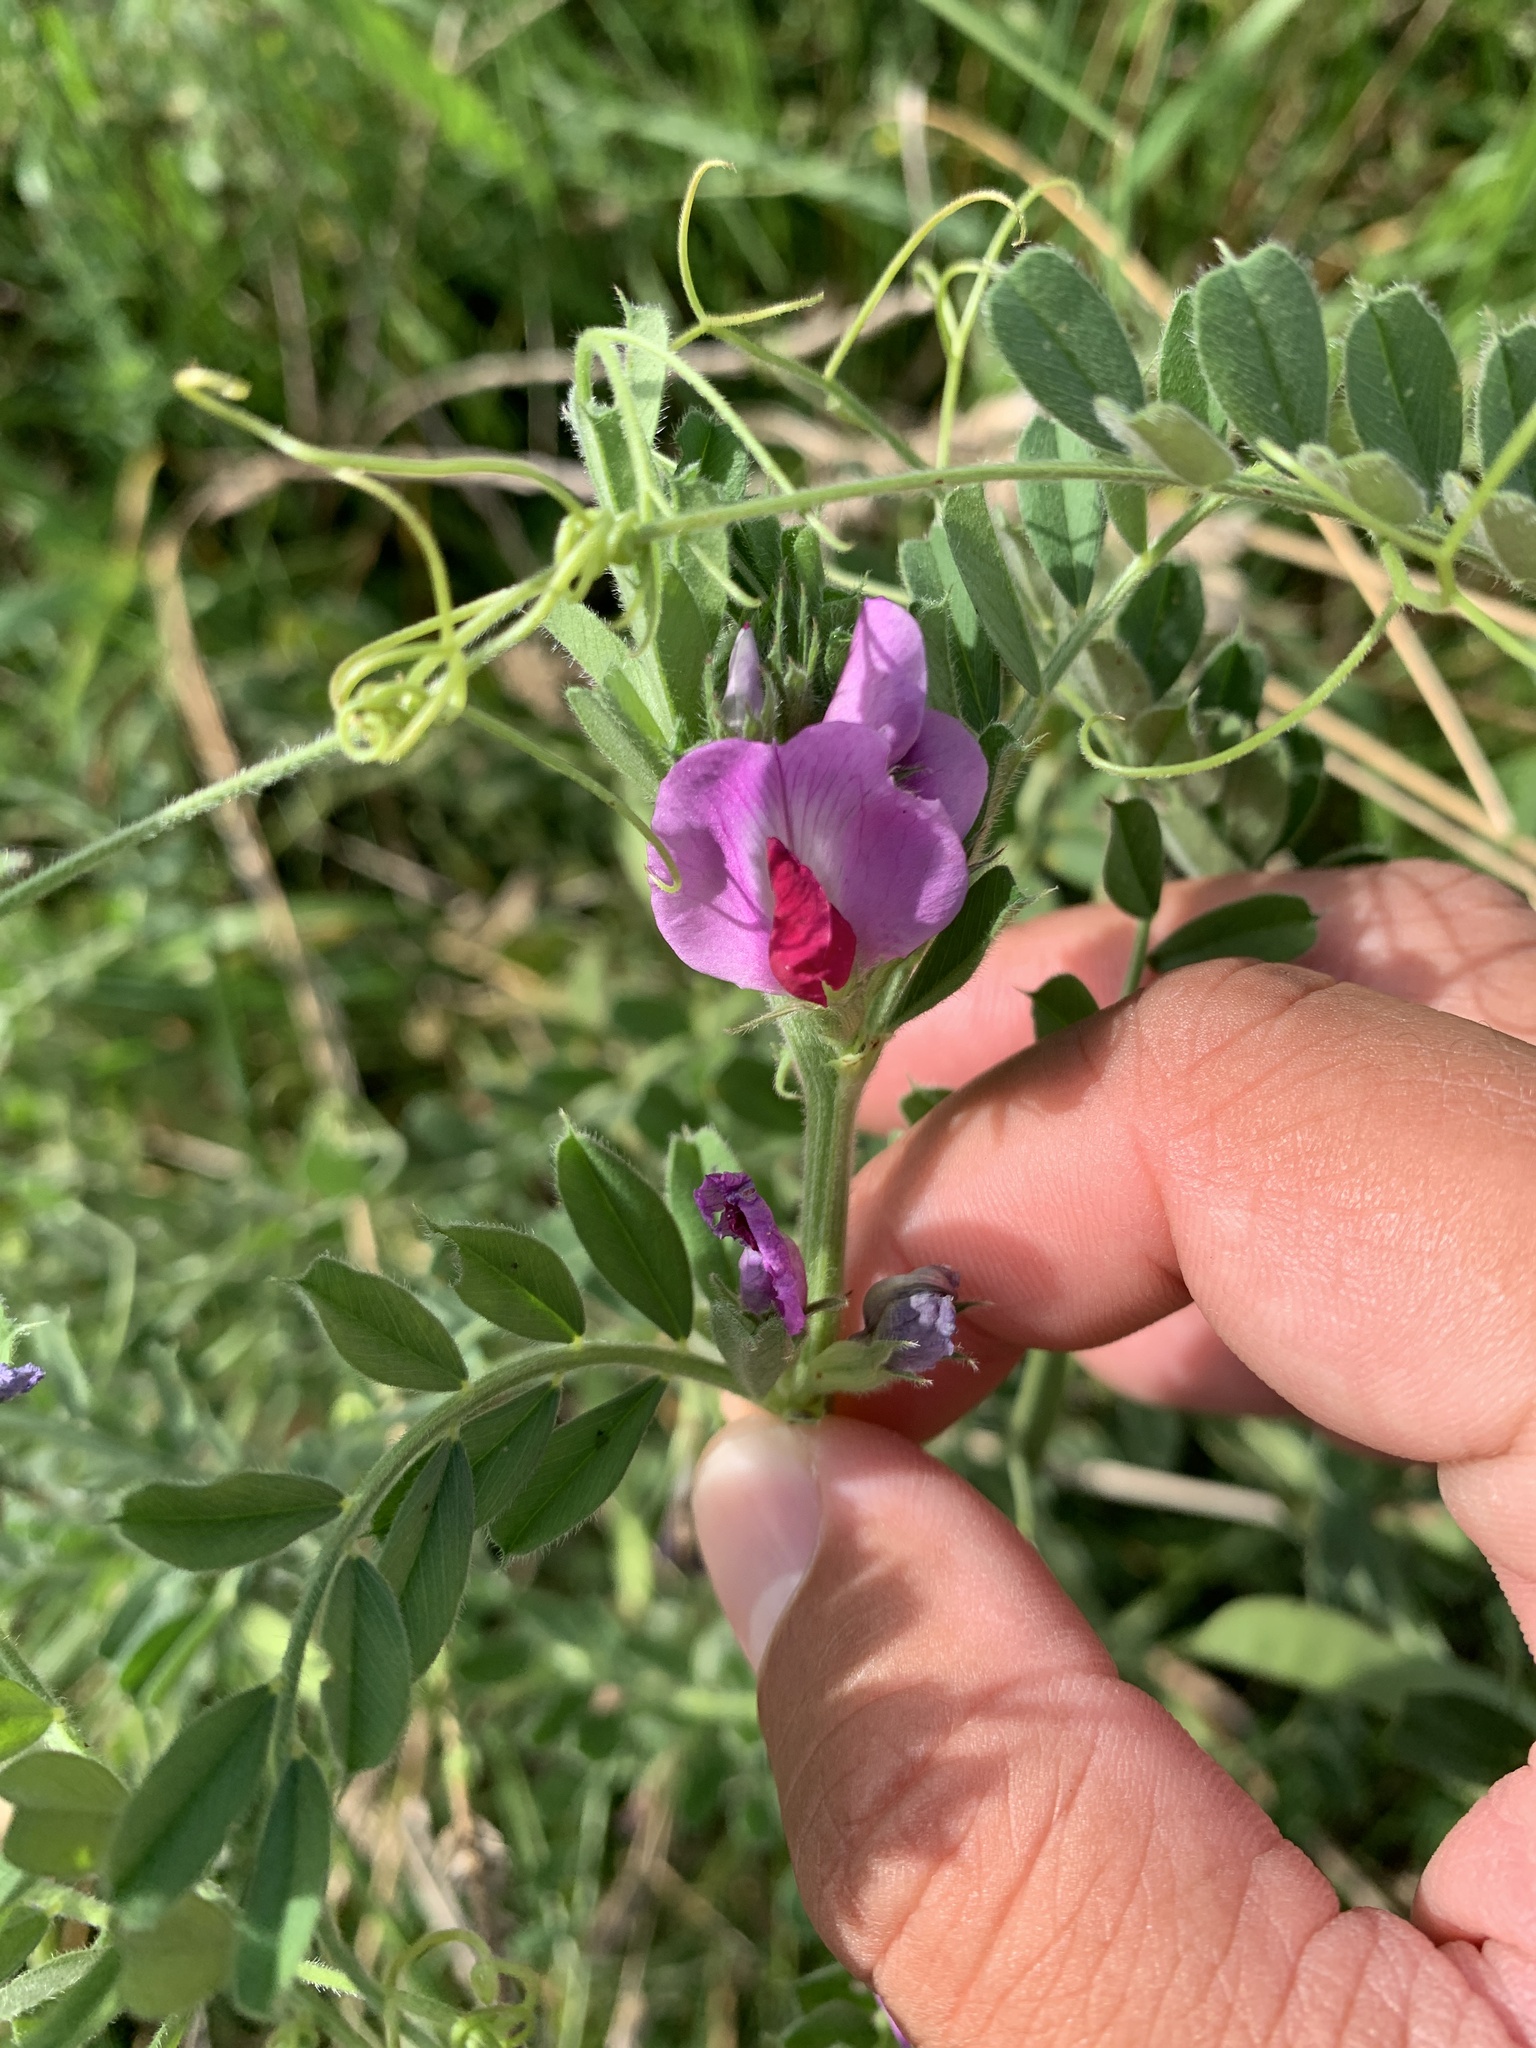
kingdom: Plantae
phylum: Tracheophyta
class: Magnoliopsida
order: Fabales
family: Fabaceae
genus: Vicia
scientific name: Vicia sativa
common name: Garden vetch
